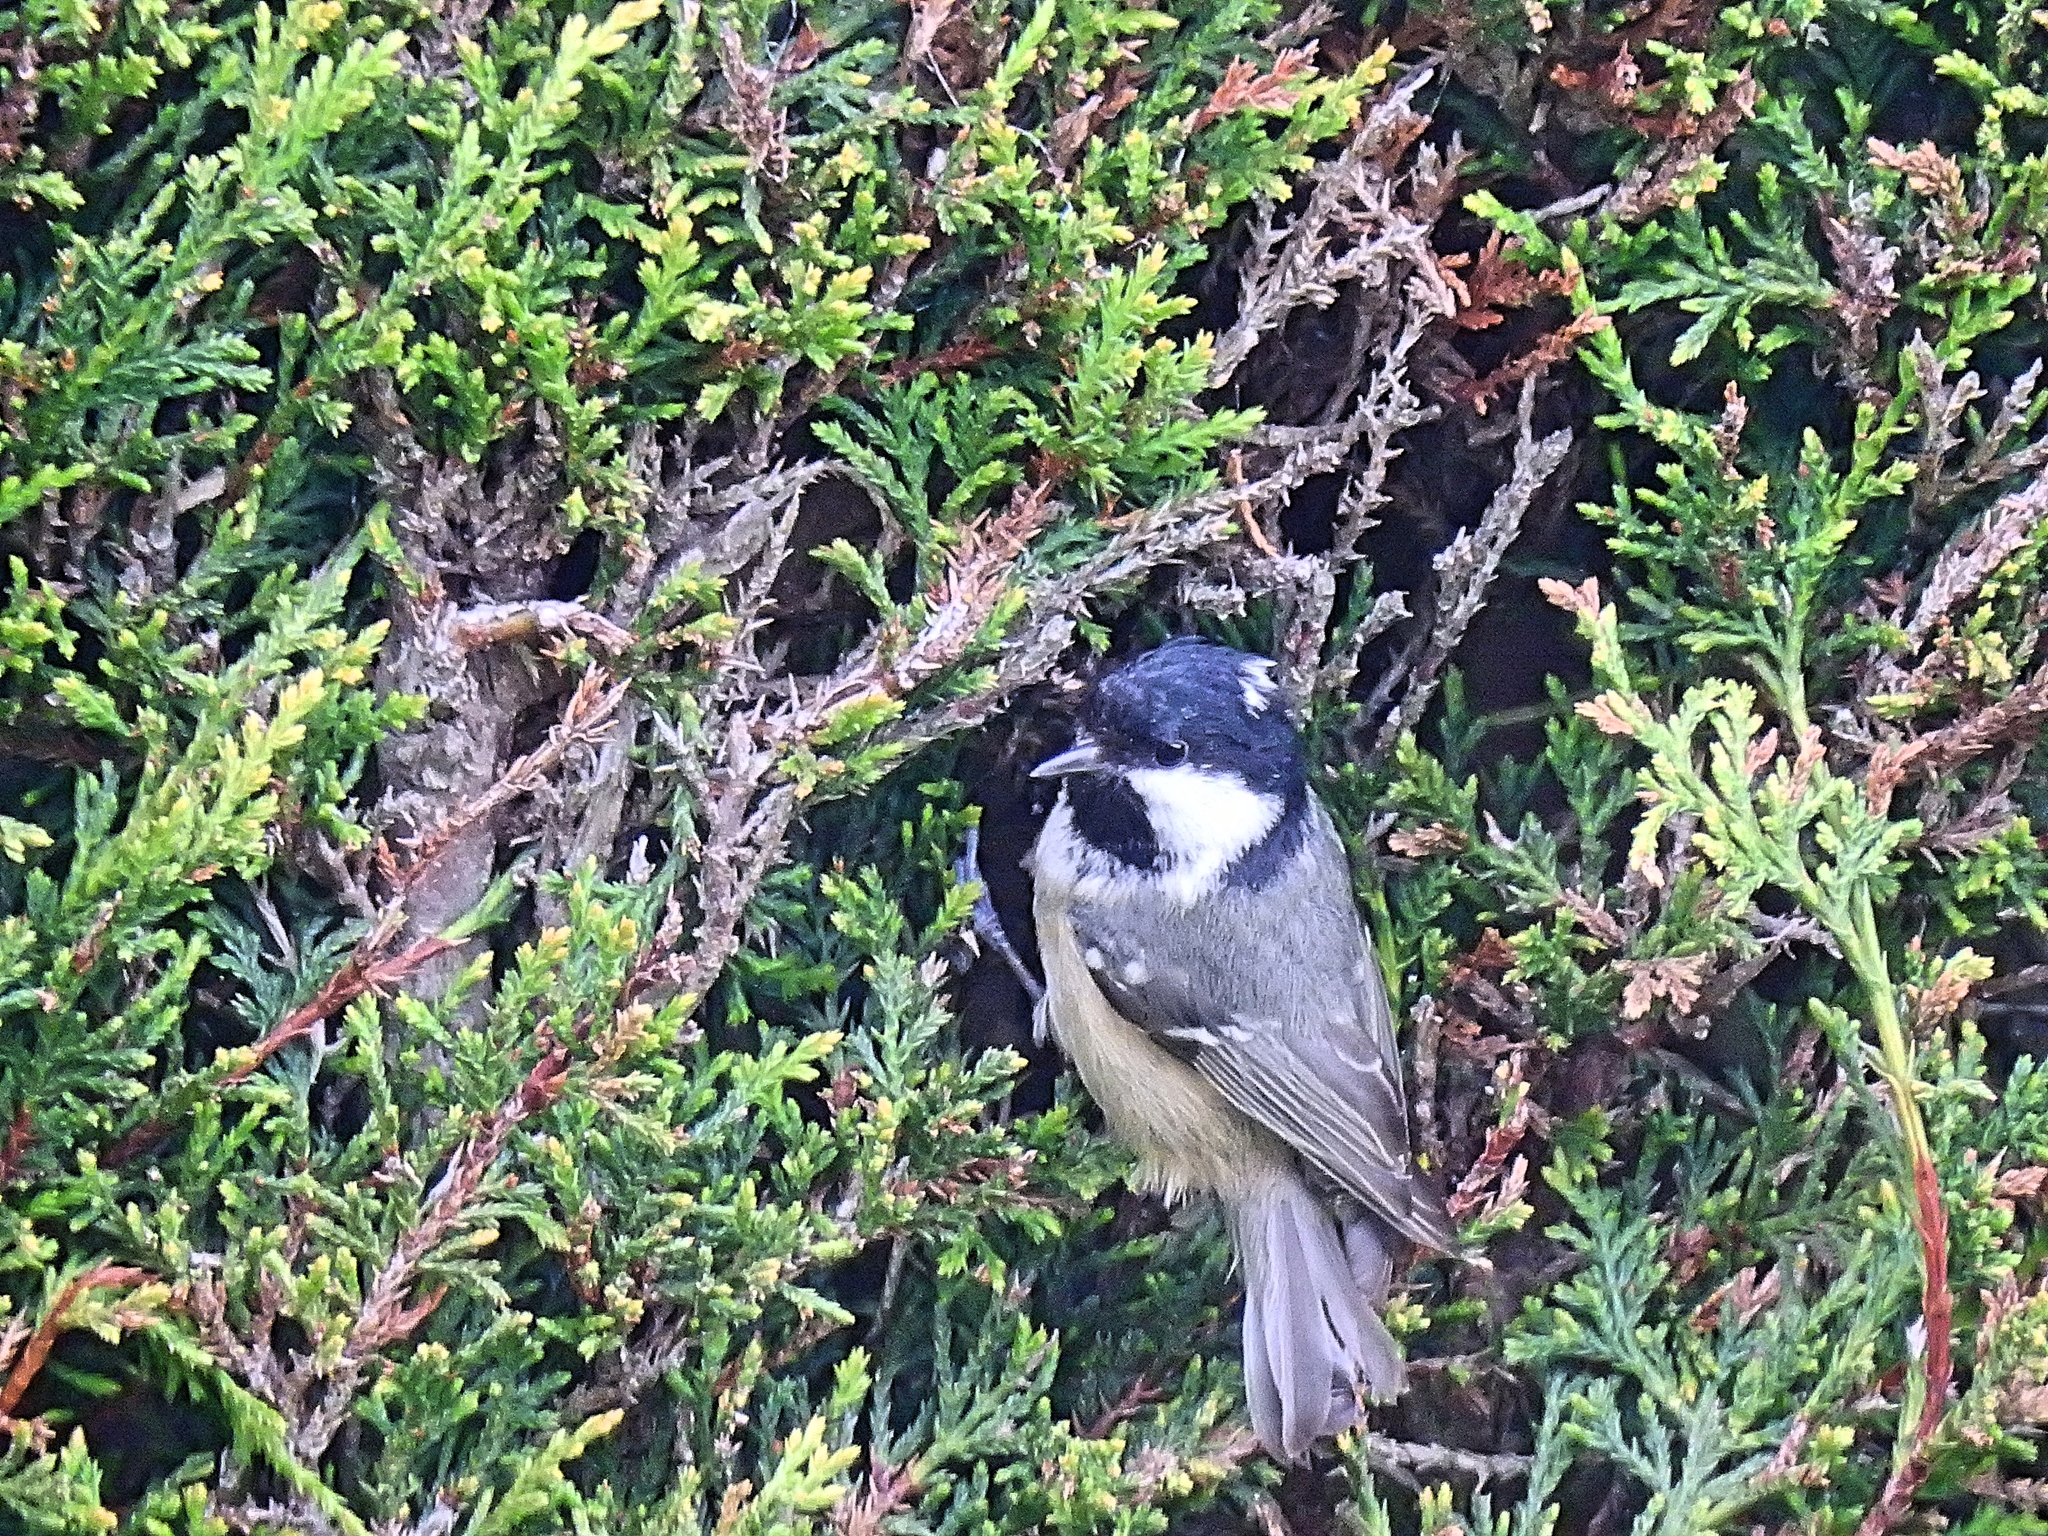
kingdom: Animalia
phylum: Chordata
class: Aves
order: Passeriformes
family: Paridae
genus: Periparus
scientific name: Periparus ater
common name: Coal tit
